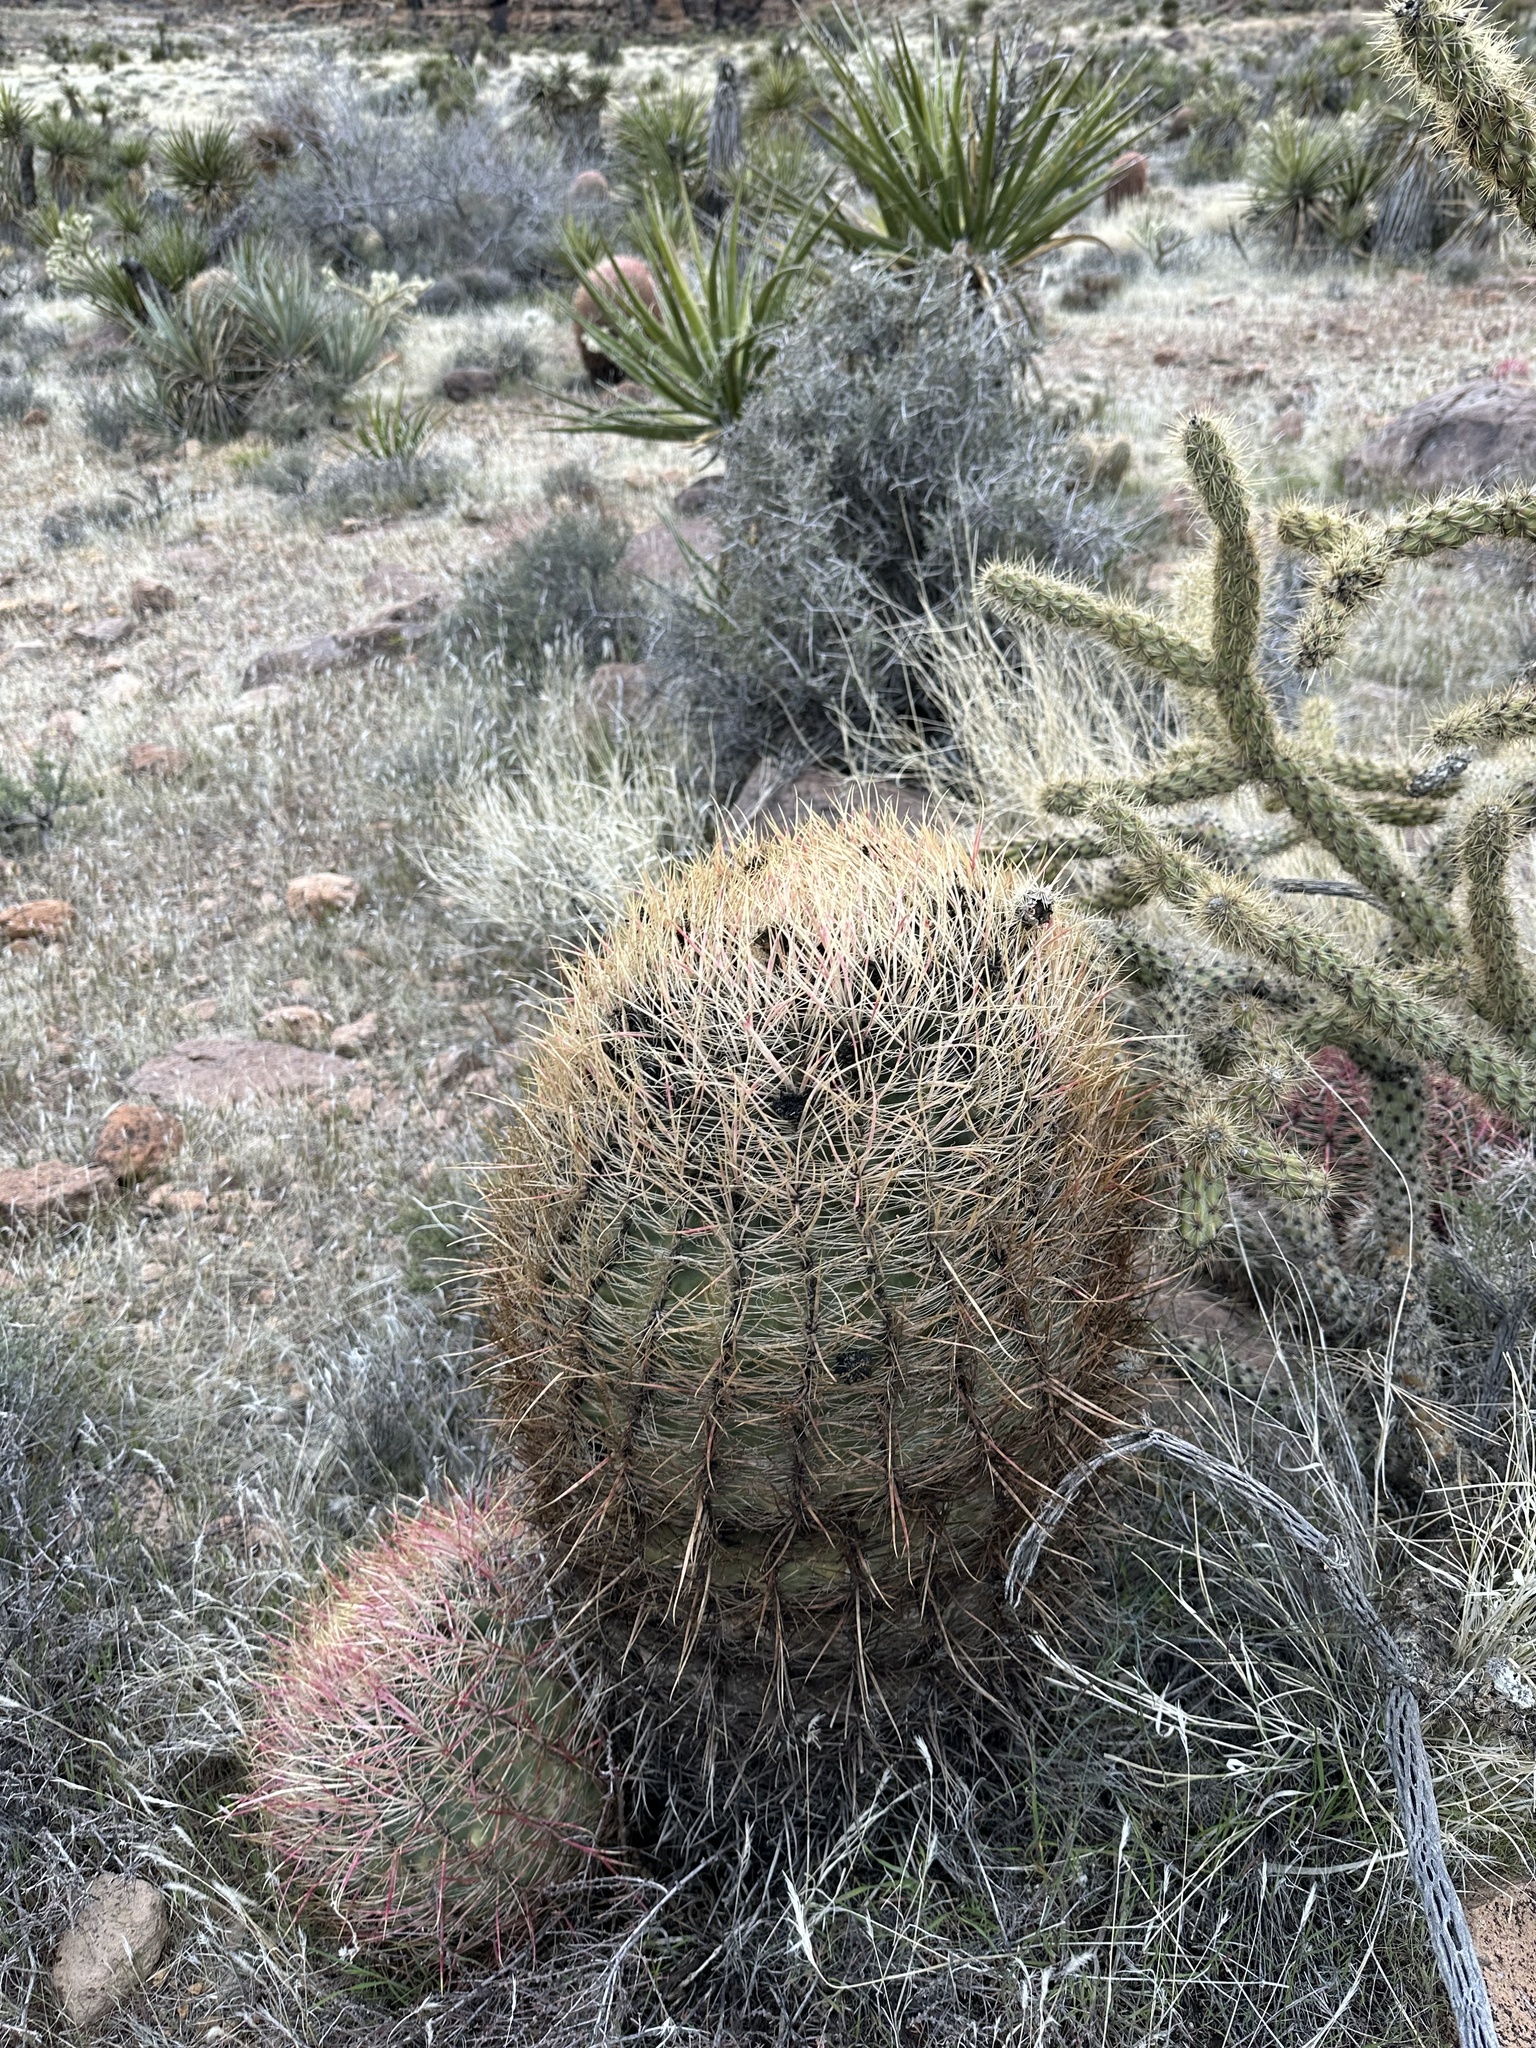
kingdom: Plantae
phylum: Tracheophyta
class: Magnoliopsida
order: Caryophyllales
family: Cactaceae
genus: Ferocactus
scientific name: Ferocactus cylindraceus
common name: California barrel cactus
